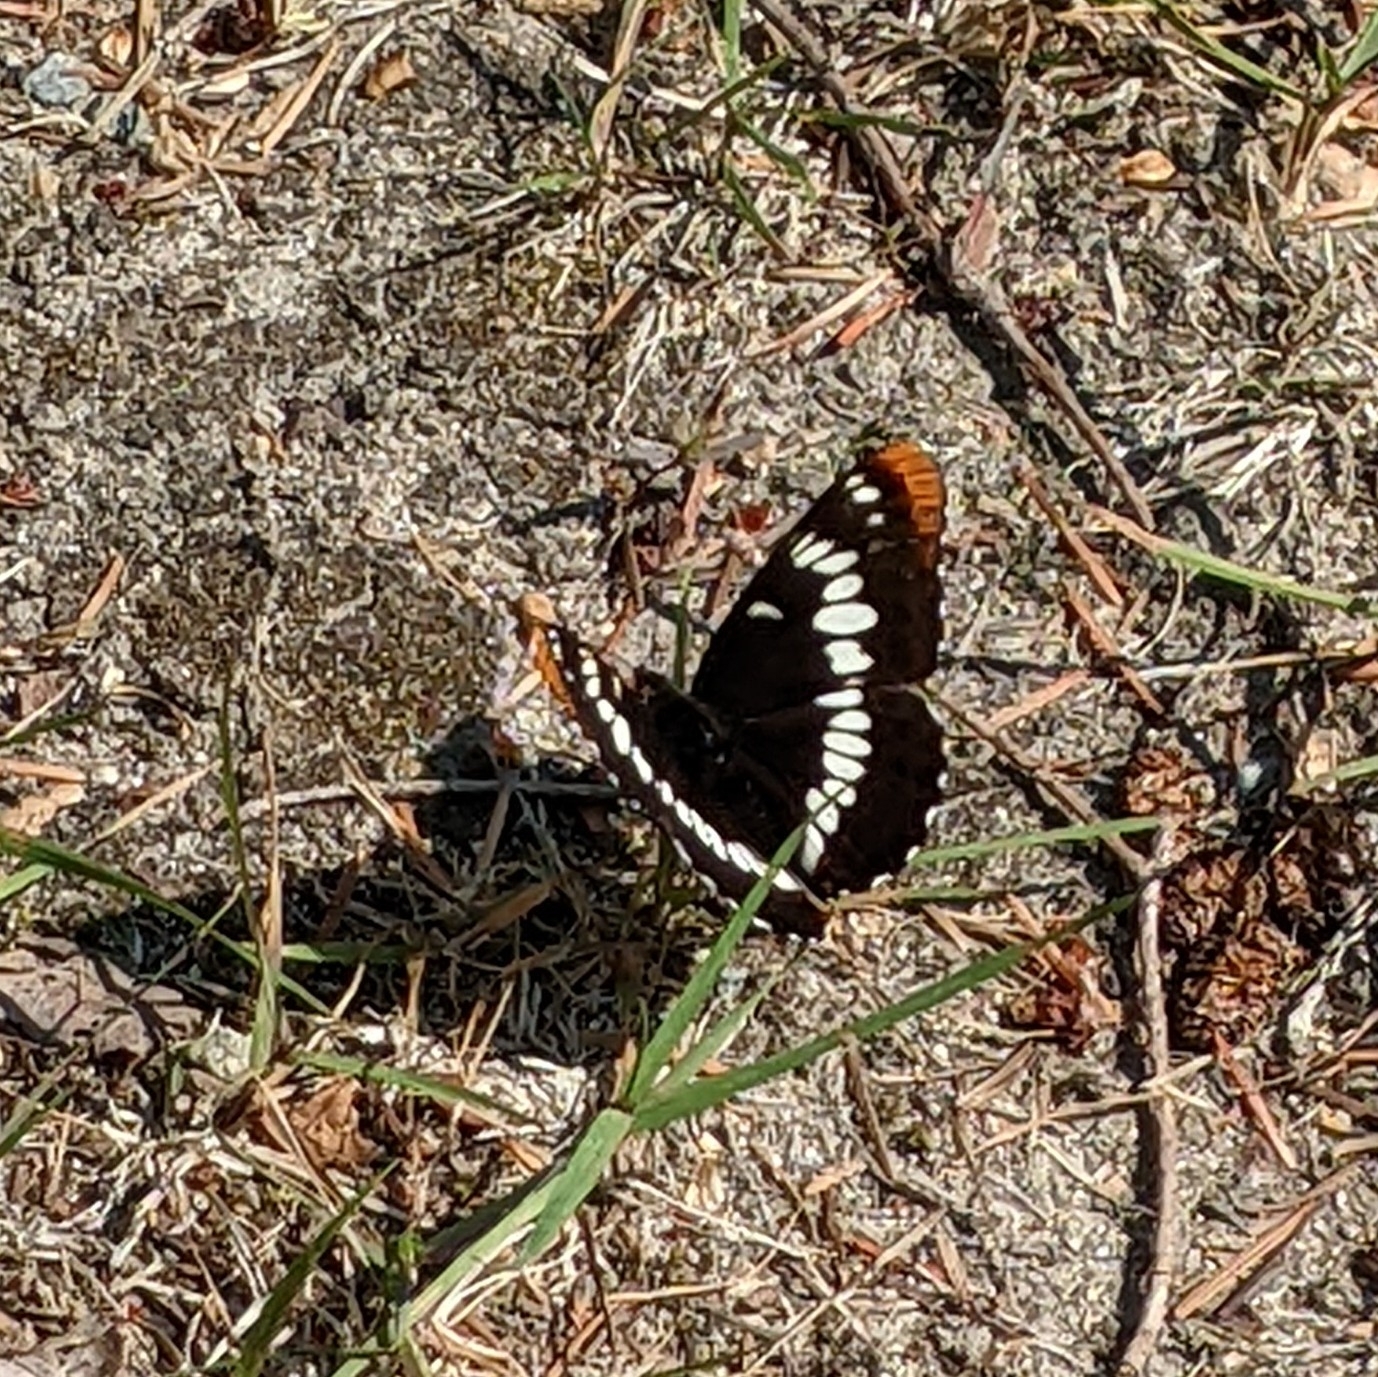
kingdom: Animalia
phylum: Arthropoda
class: Insecta
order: Lepidoptera
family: Nymphalidae
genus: Limenitis
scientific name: Limenitis lorquini
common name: Lorquin's admiral
